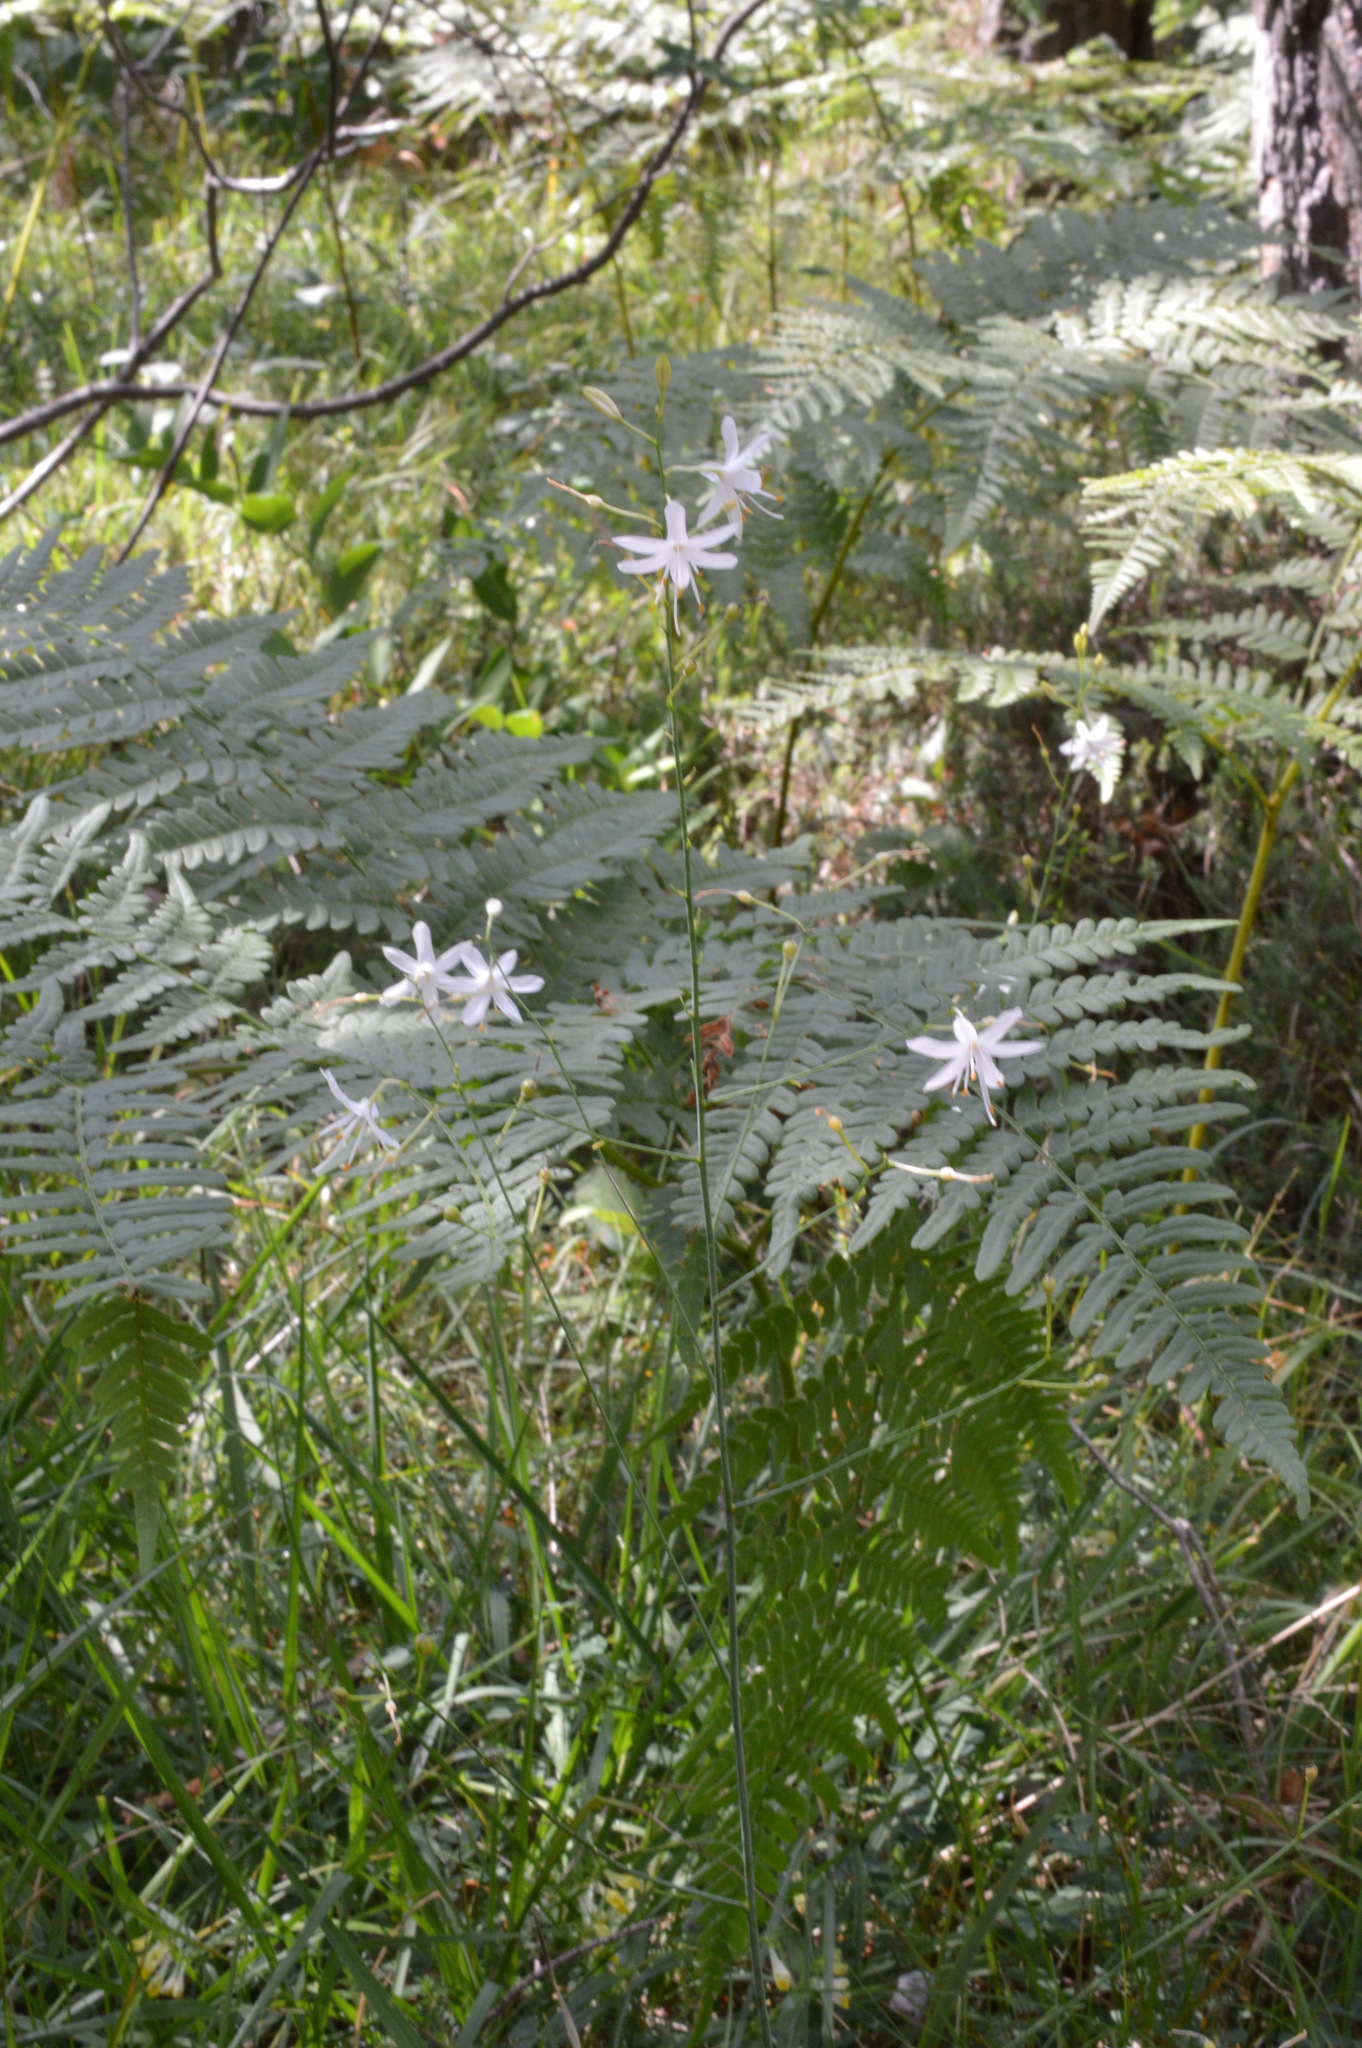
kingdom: Plantae
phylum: Tracheophyta
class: Liliopsida
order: Asparagales
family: Asparagaceae
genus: Anthericum
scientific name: Anthericum ramosum
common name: Branched st. bernard's-lily
